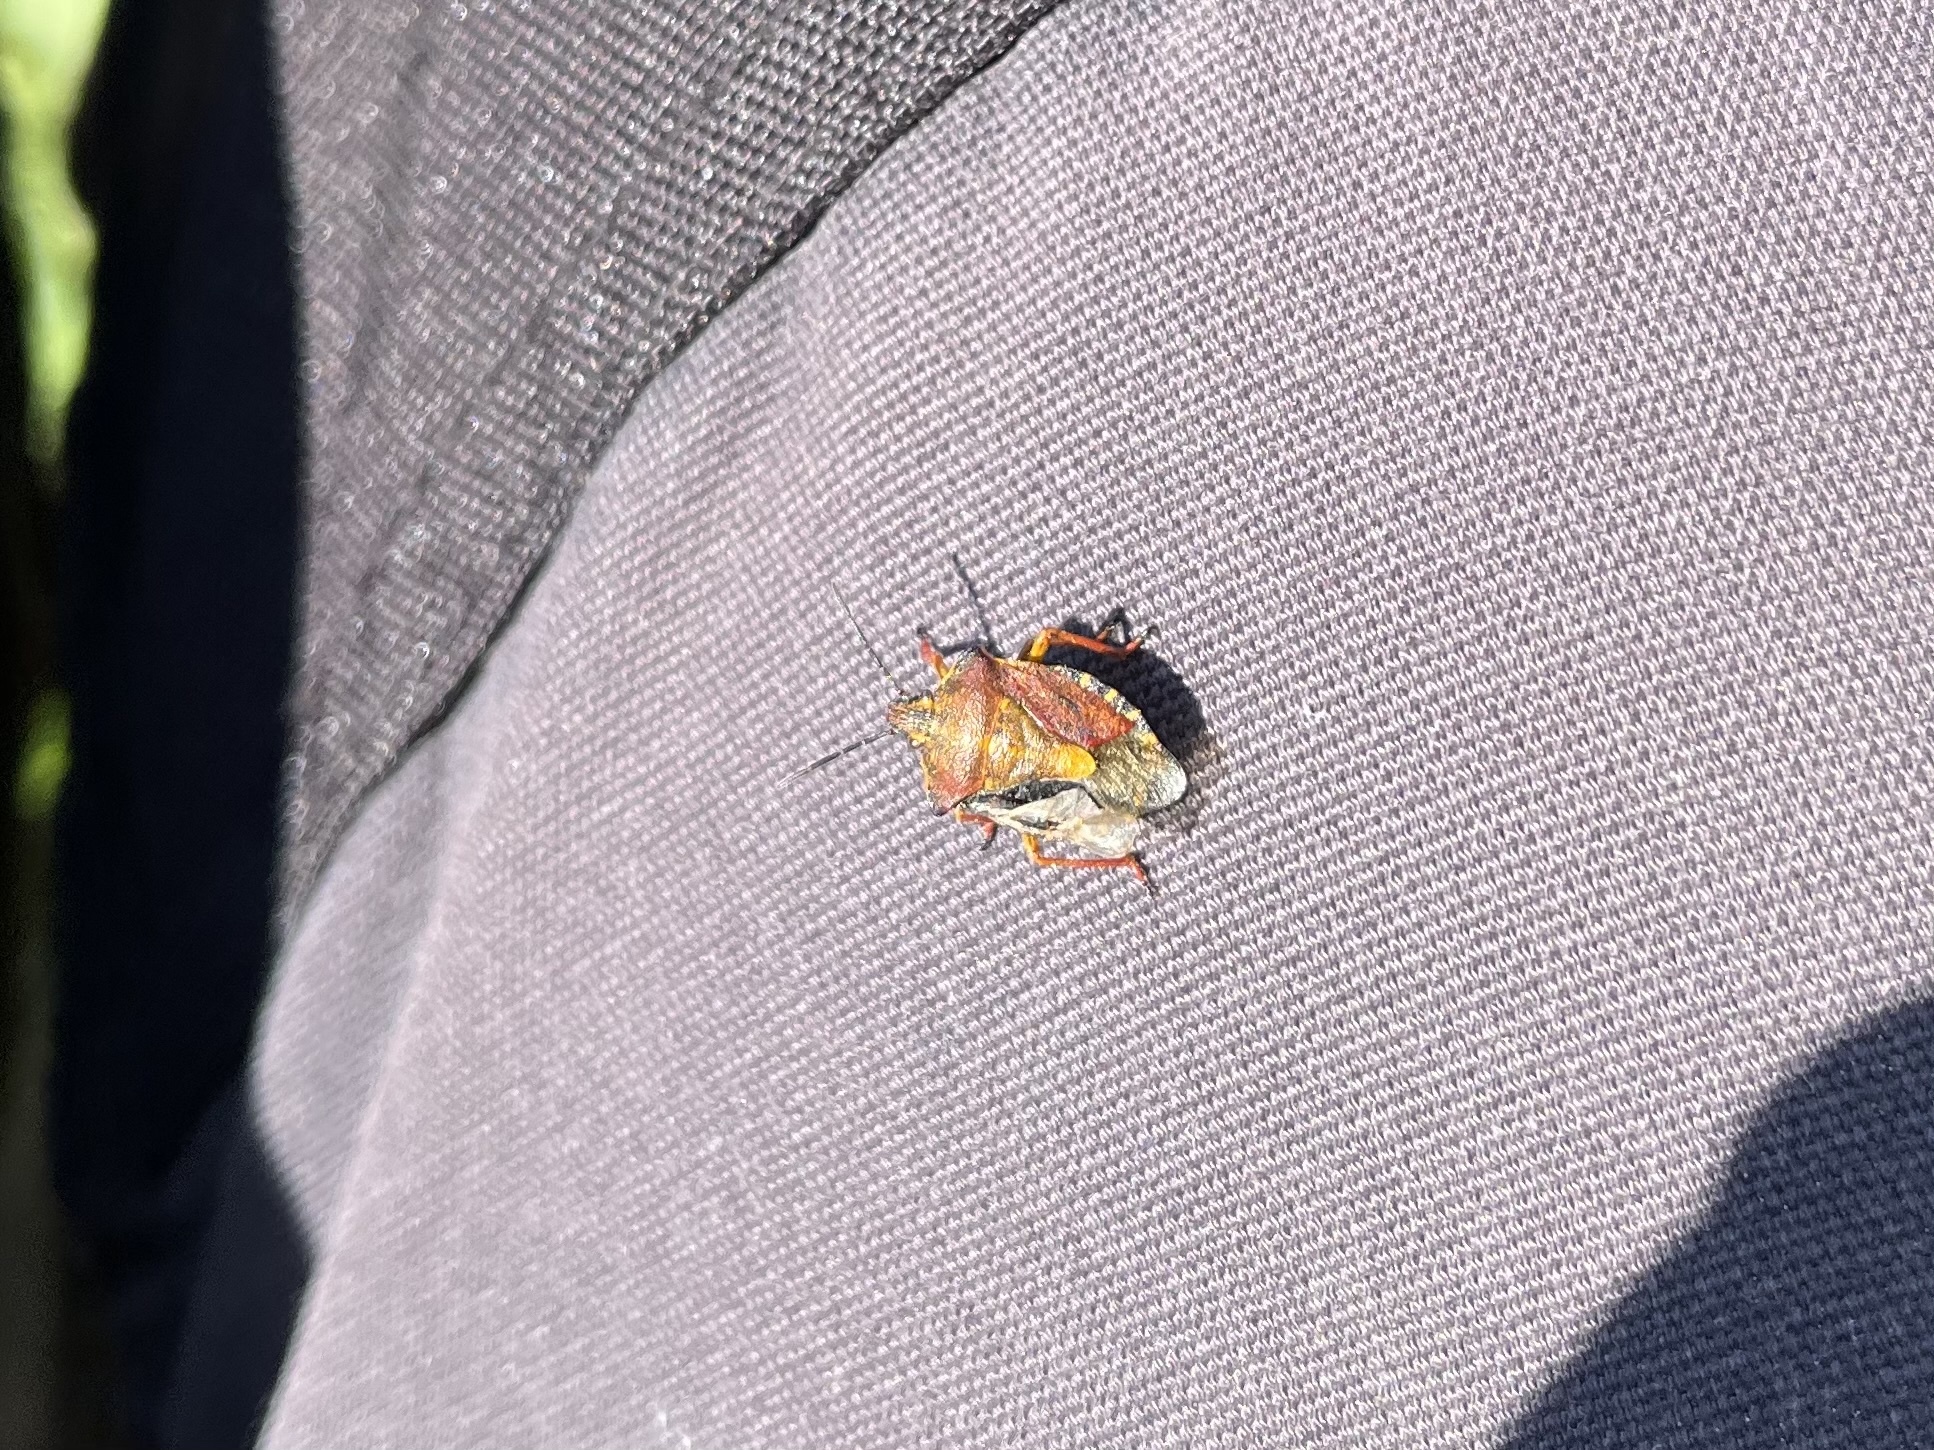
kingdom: Animalia
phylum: Arthropoda
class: Insecta
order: Hemiptera
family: Pentatomidae
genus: Carpocoris
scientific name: Carpocoris purpureipennis
